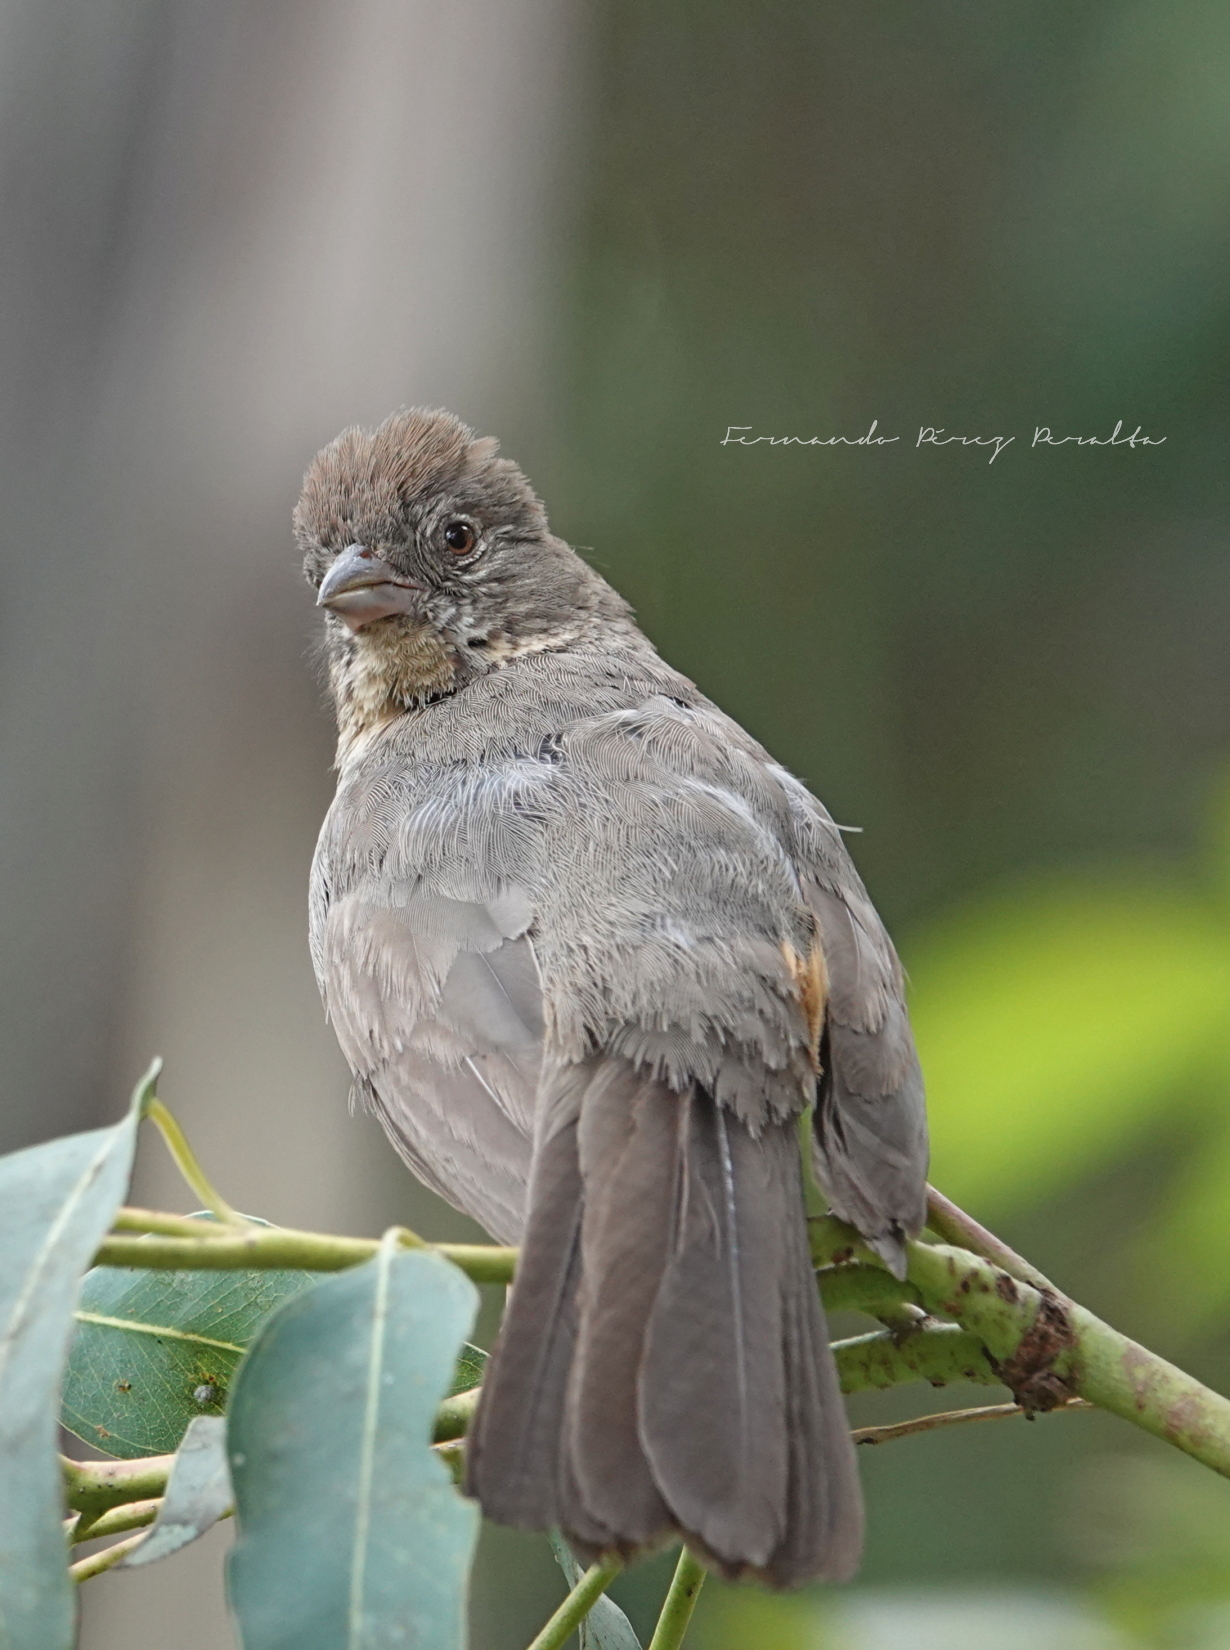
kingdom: Animalia
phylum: Chordata
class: Aves
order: Passeriformes
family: Passerellidae
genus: Melozone
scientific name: Melozone fusca
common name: Canyon towhee
